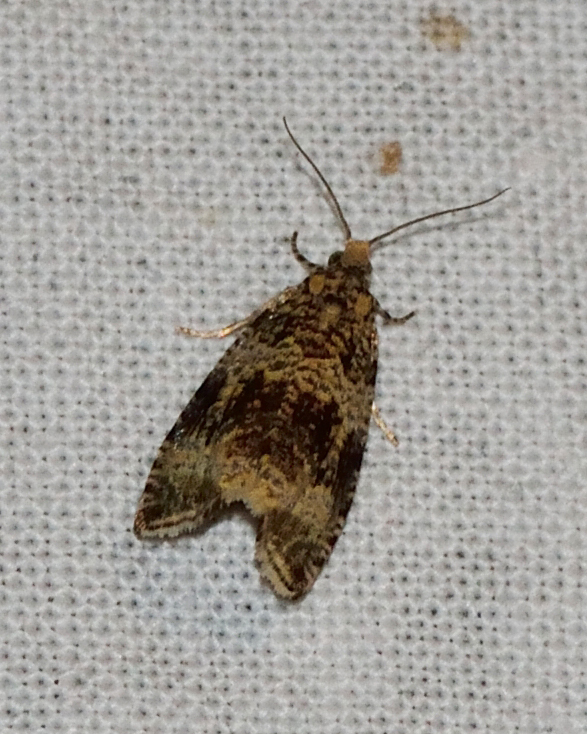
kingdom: Animalia
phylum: Arthropoda
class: Insecta
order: Lepidoptera
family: Tortricidae
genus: Syricoris
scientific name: Syricoris lacunana
